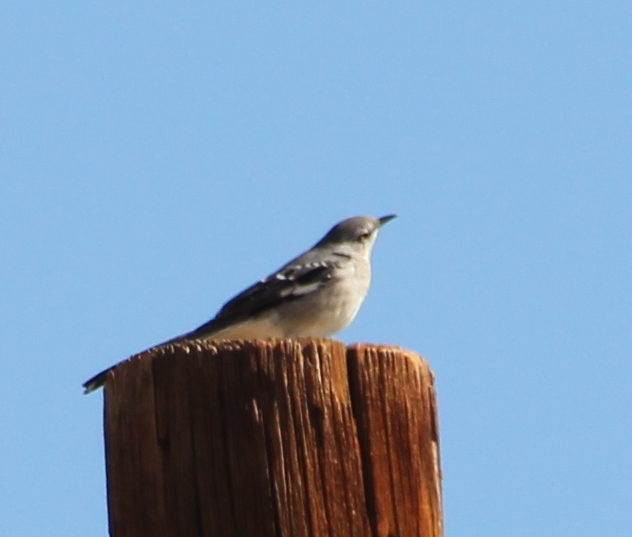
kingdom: Animalia
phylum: Chordata
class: Aves
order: Passeriformes
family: Mimidae
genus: Mimus
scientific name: Mimus polyglottos
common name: Northern mockingbird
